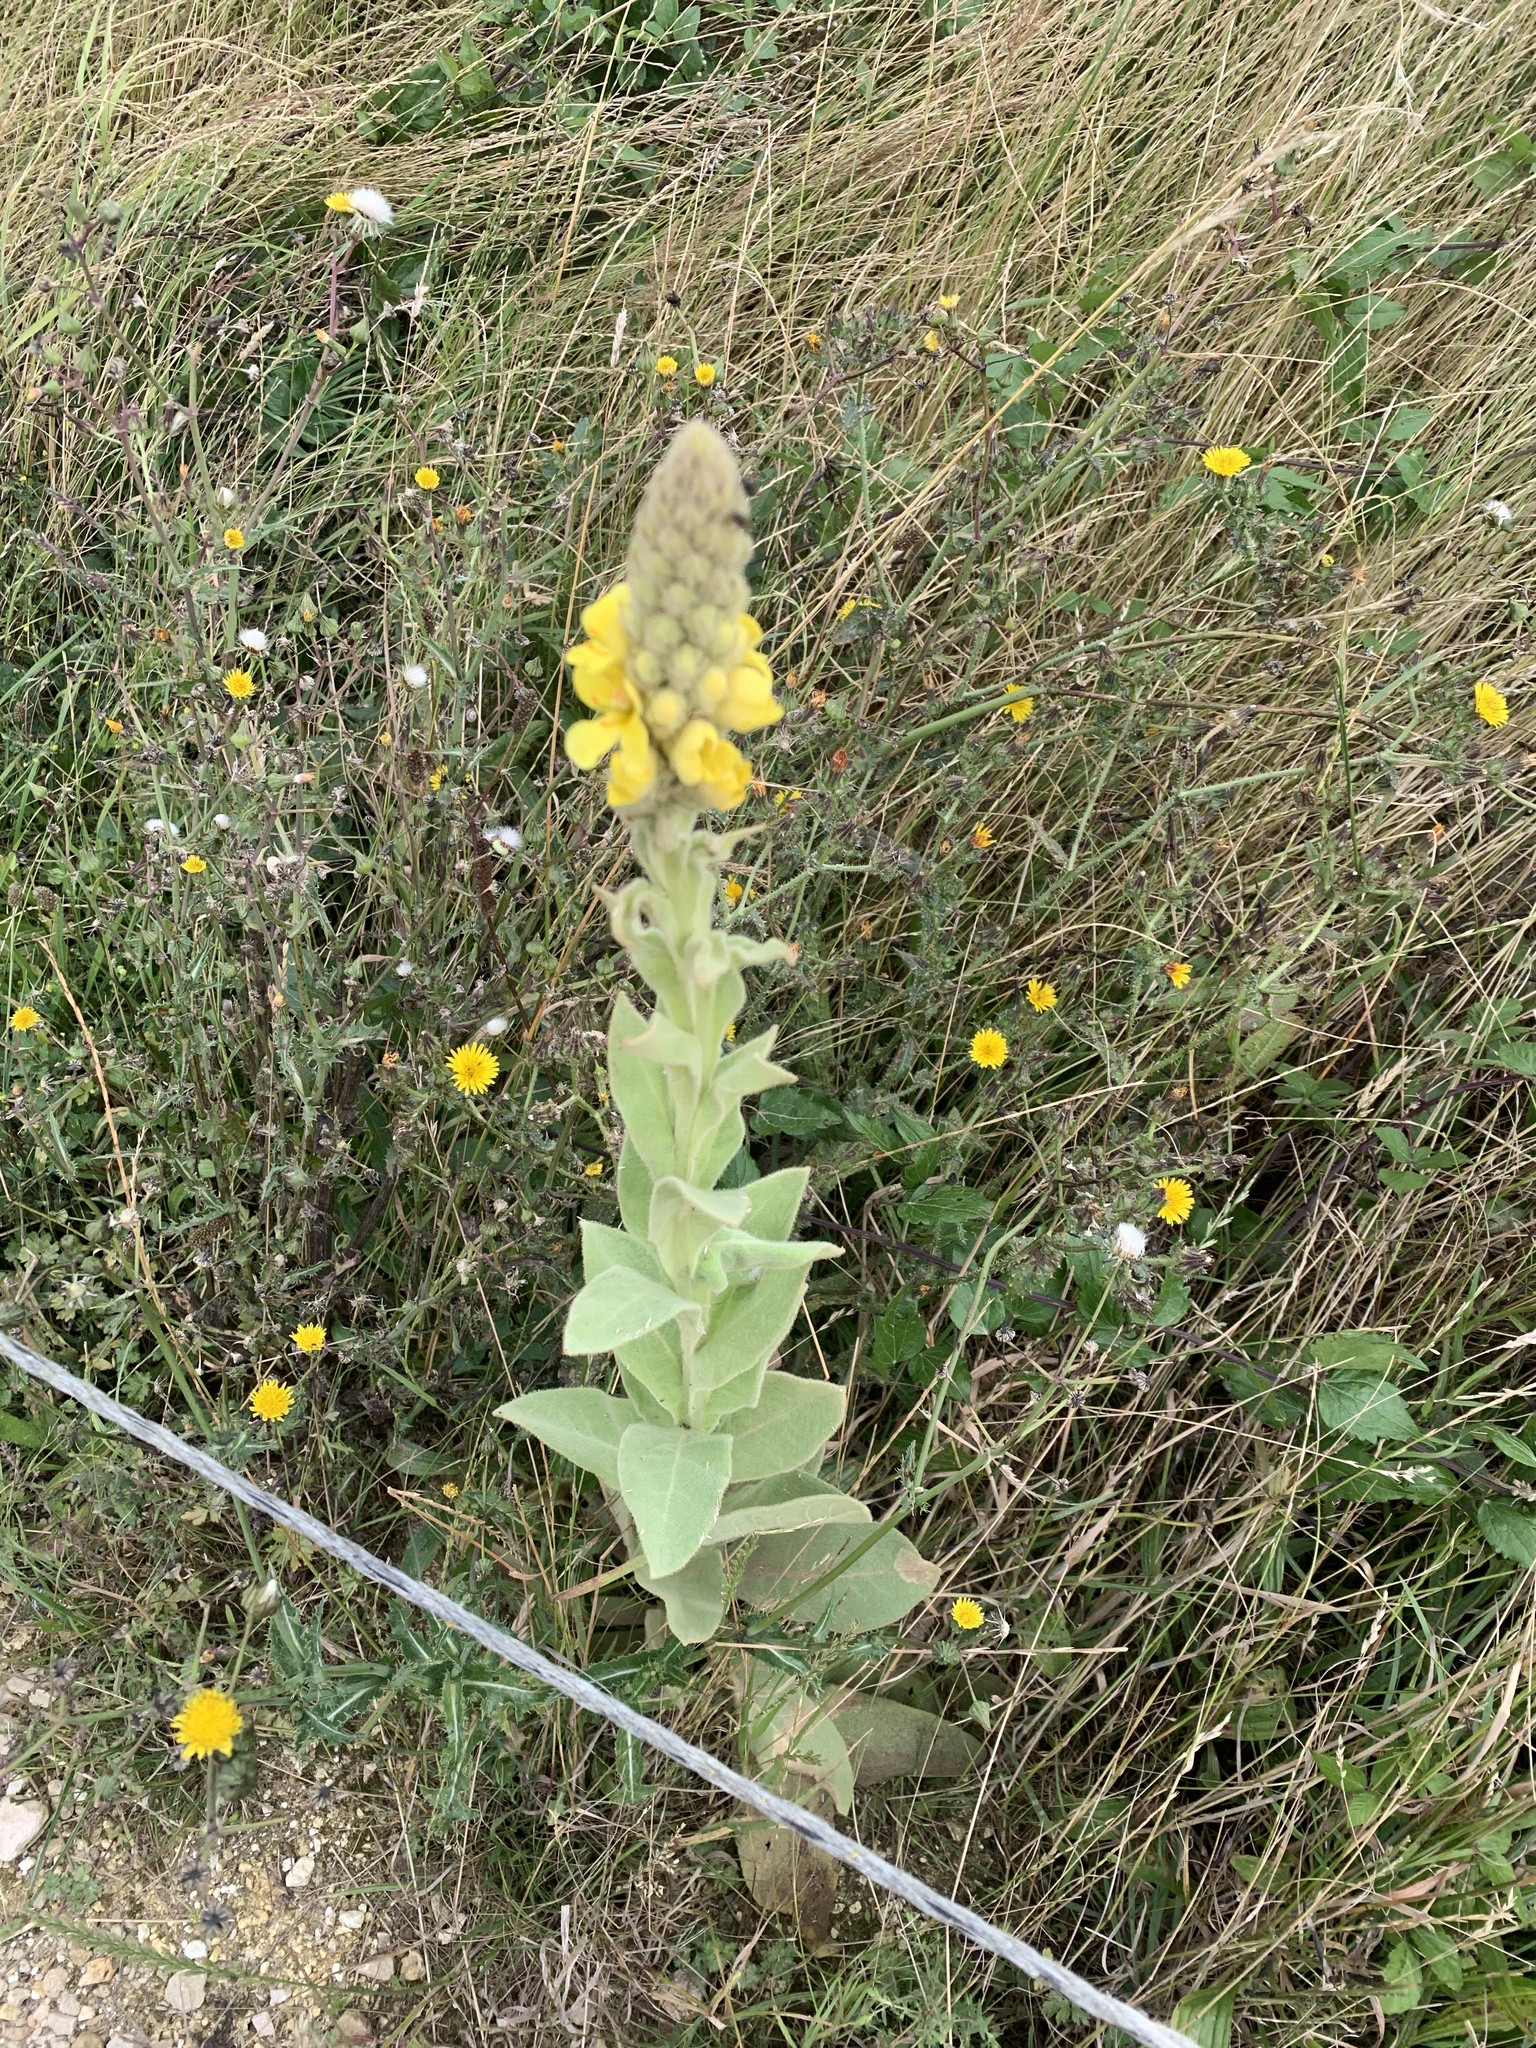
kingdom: Plantae
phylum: Tracheophyta
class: Magnoliopsida
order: Lamiales
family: Scrophulariaceae
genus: Verbascum
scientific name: Verbascum thapsus
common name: Common mullein
